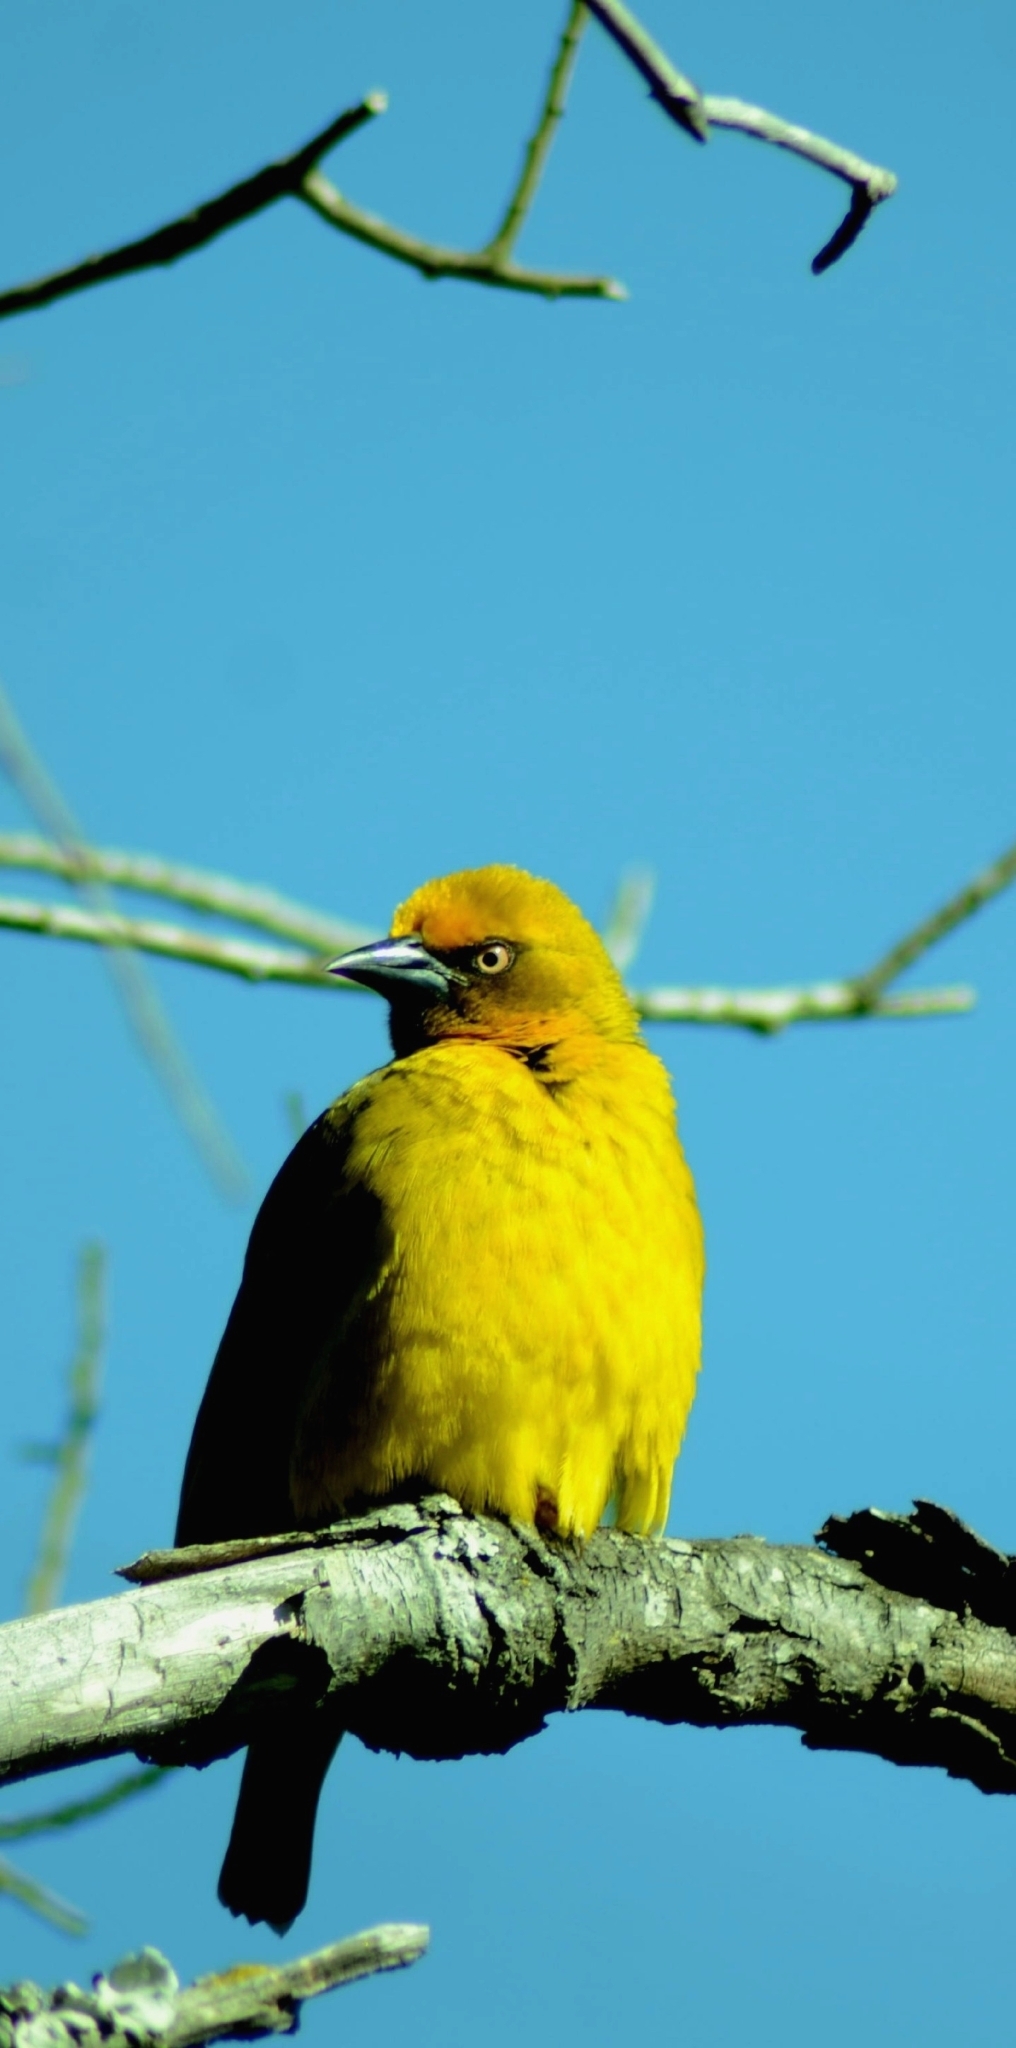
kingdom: Animalia
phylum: Chordata
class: Aves
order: Passeriformes
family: Ploceidae
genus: Ploceus
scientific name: Ploceus capensis
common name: Cape weaver
